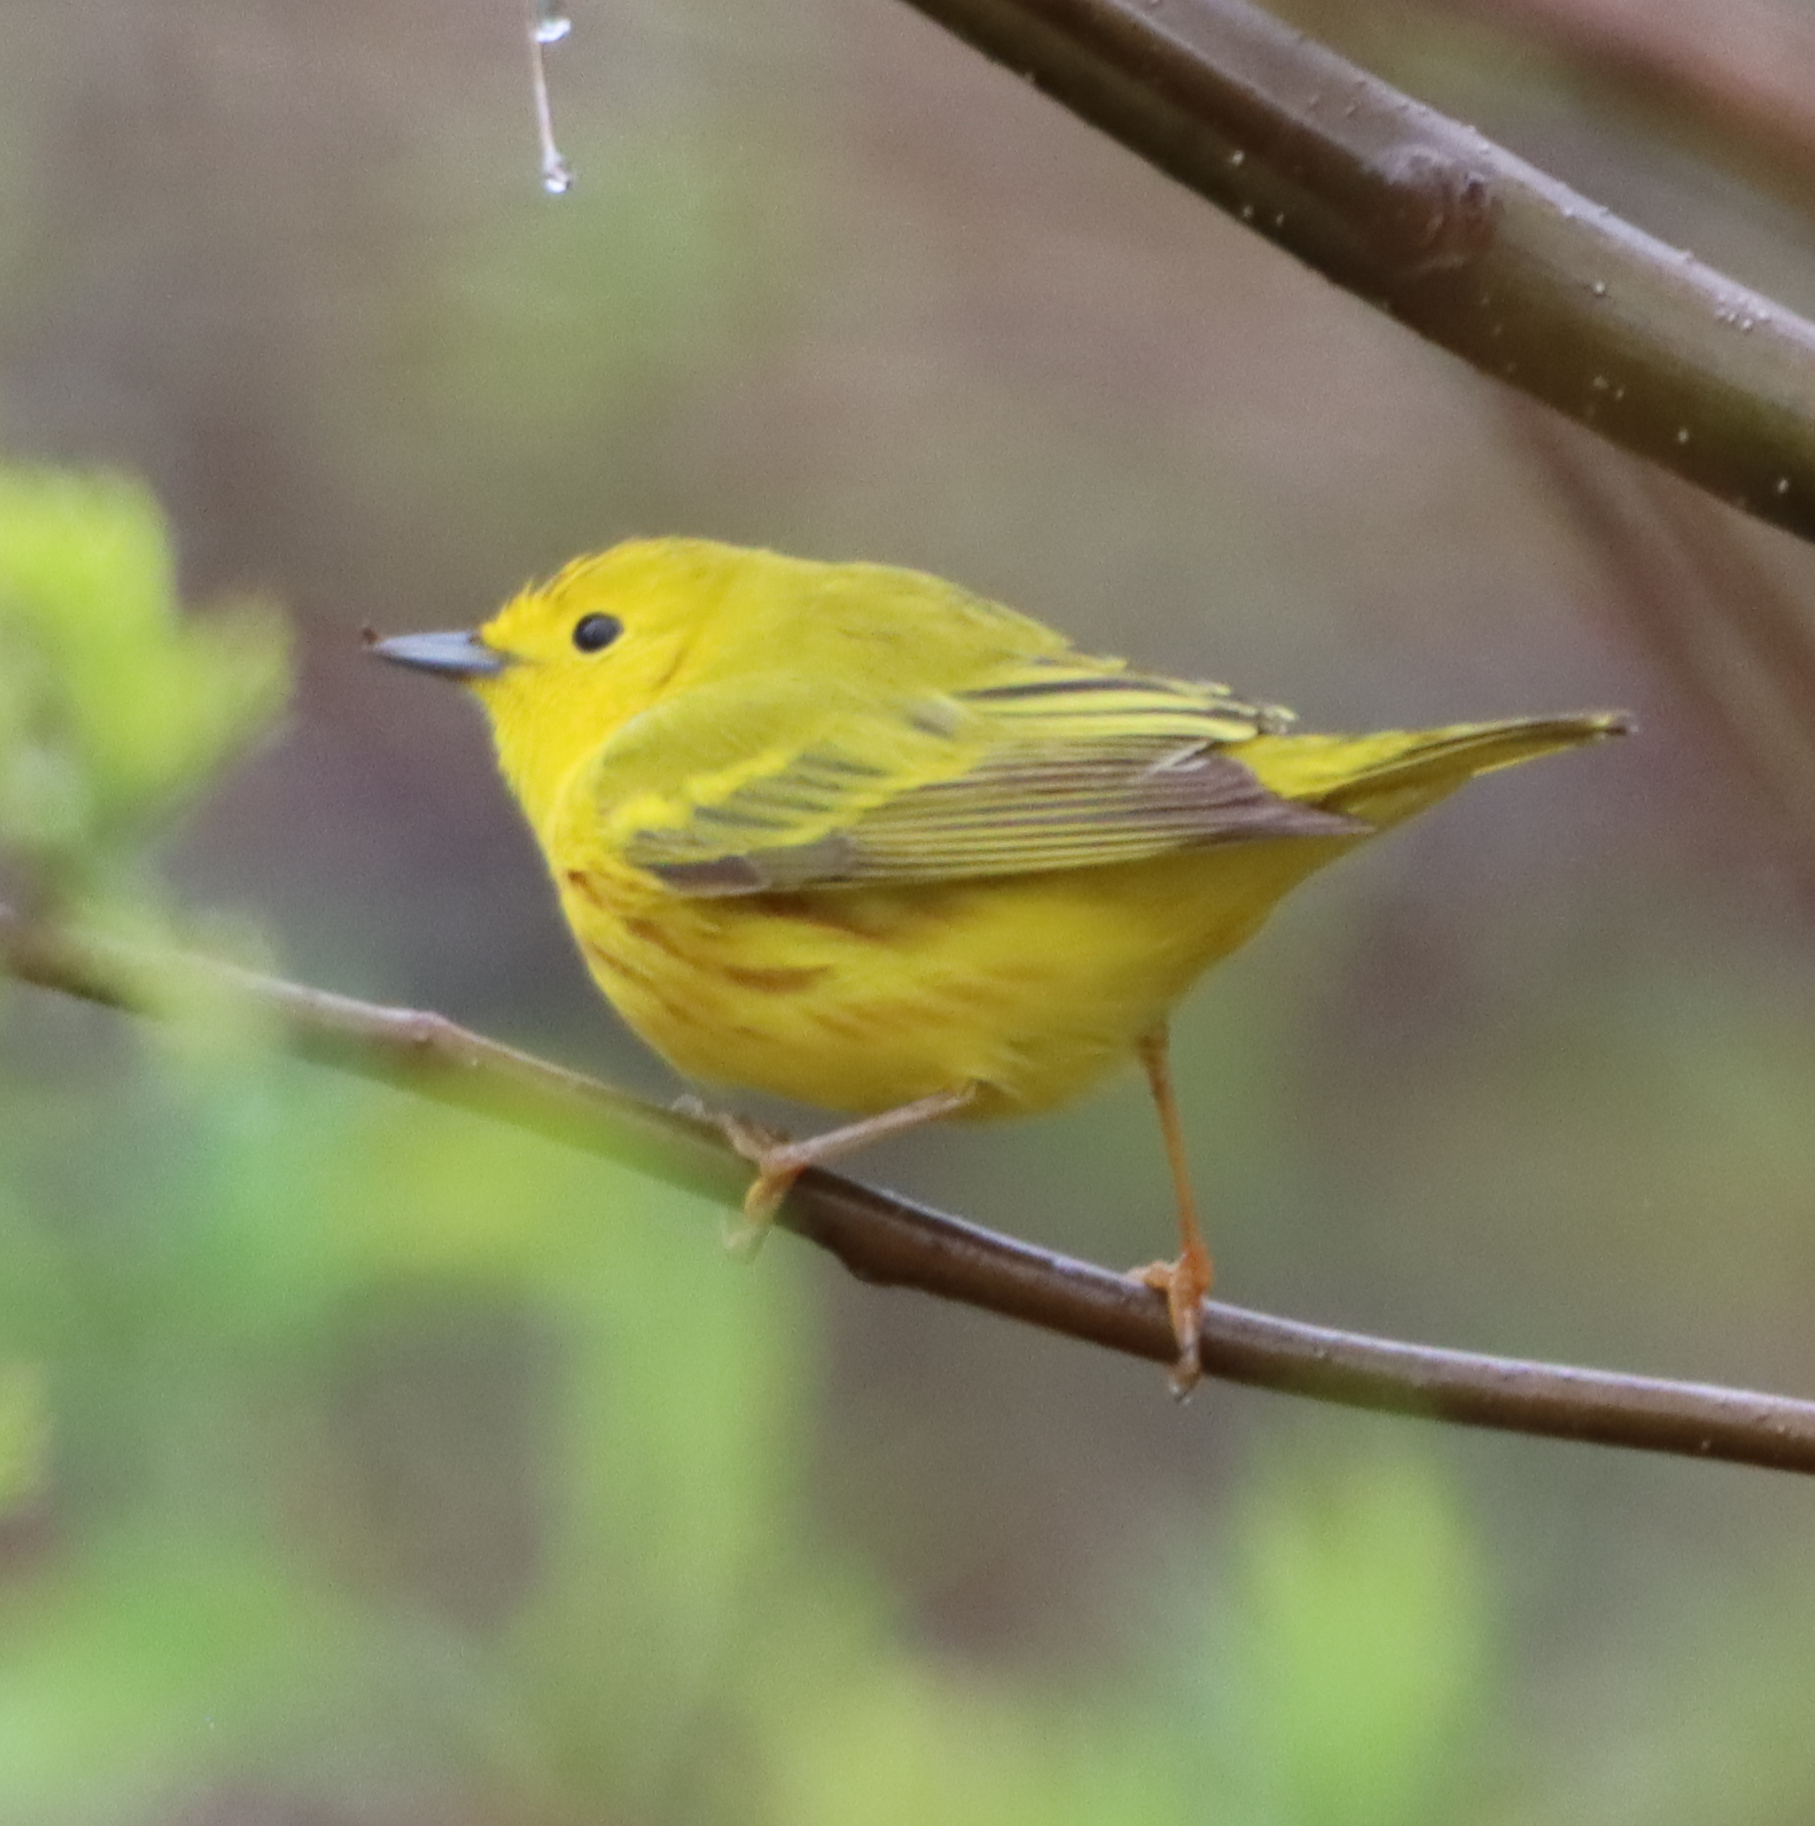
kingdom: Animalia
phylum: Chordata
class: Aves
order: Passeriformes
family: Parulidae
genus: Setophaga
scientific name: Setophaga petechia
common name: Yellow warbler
